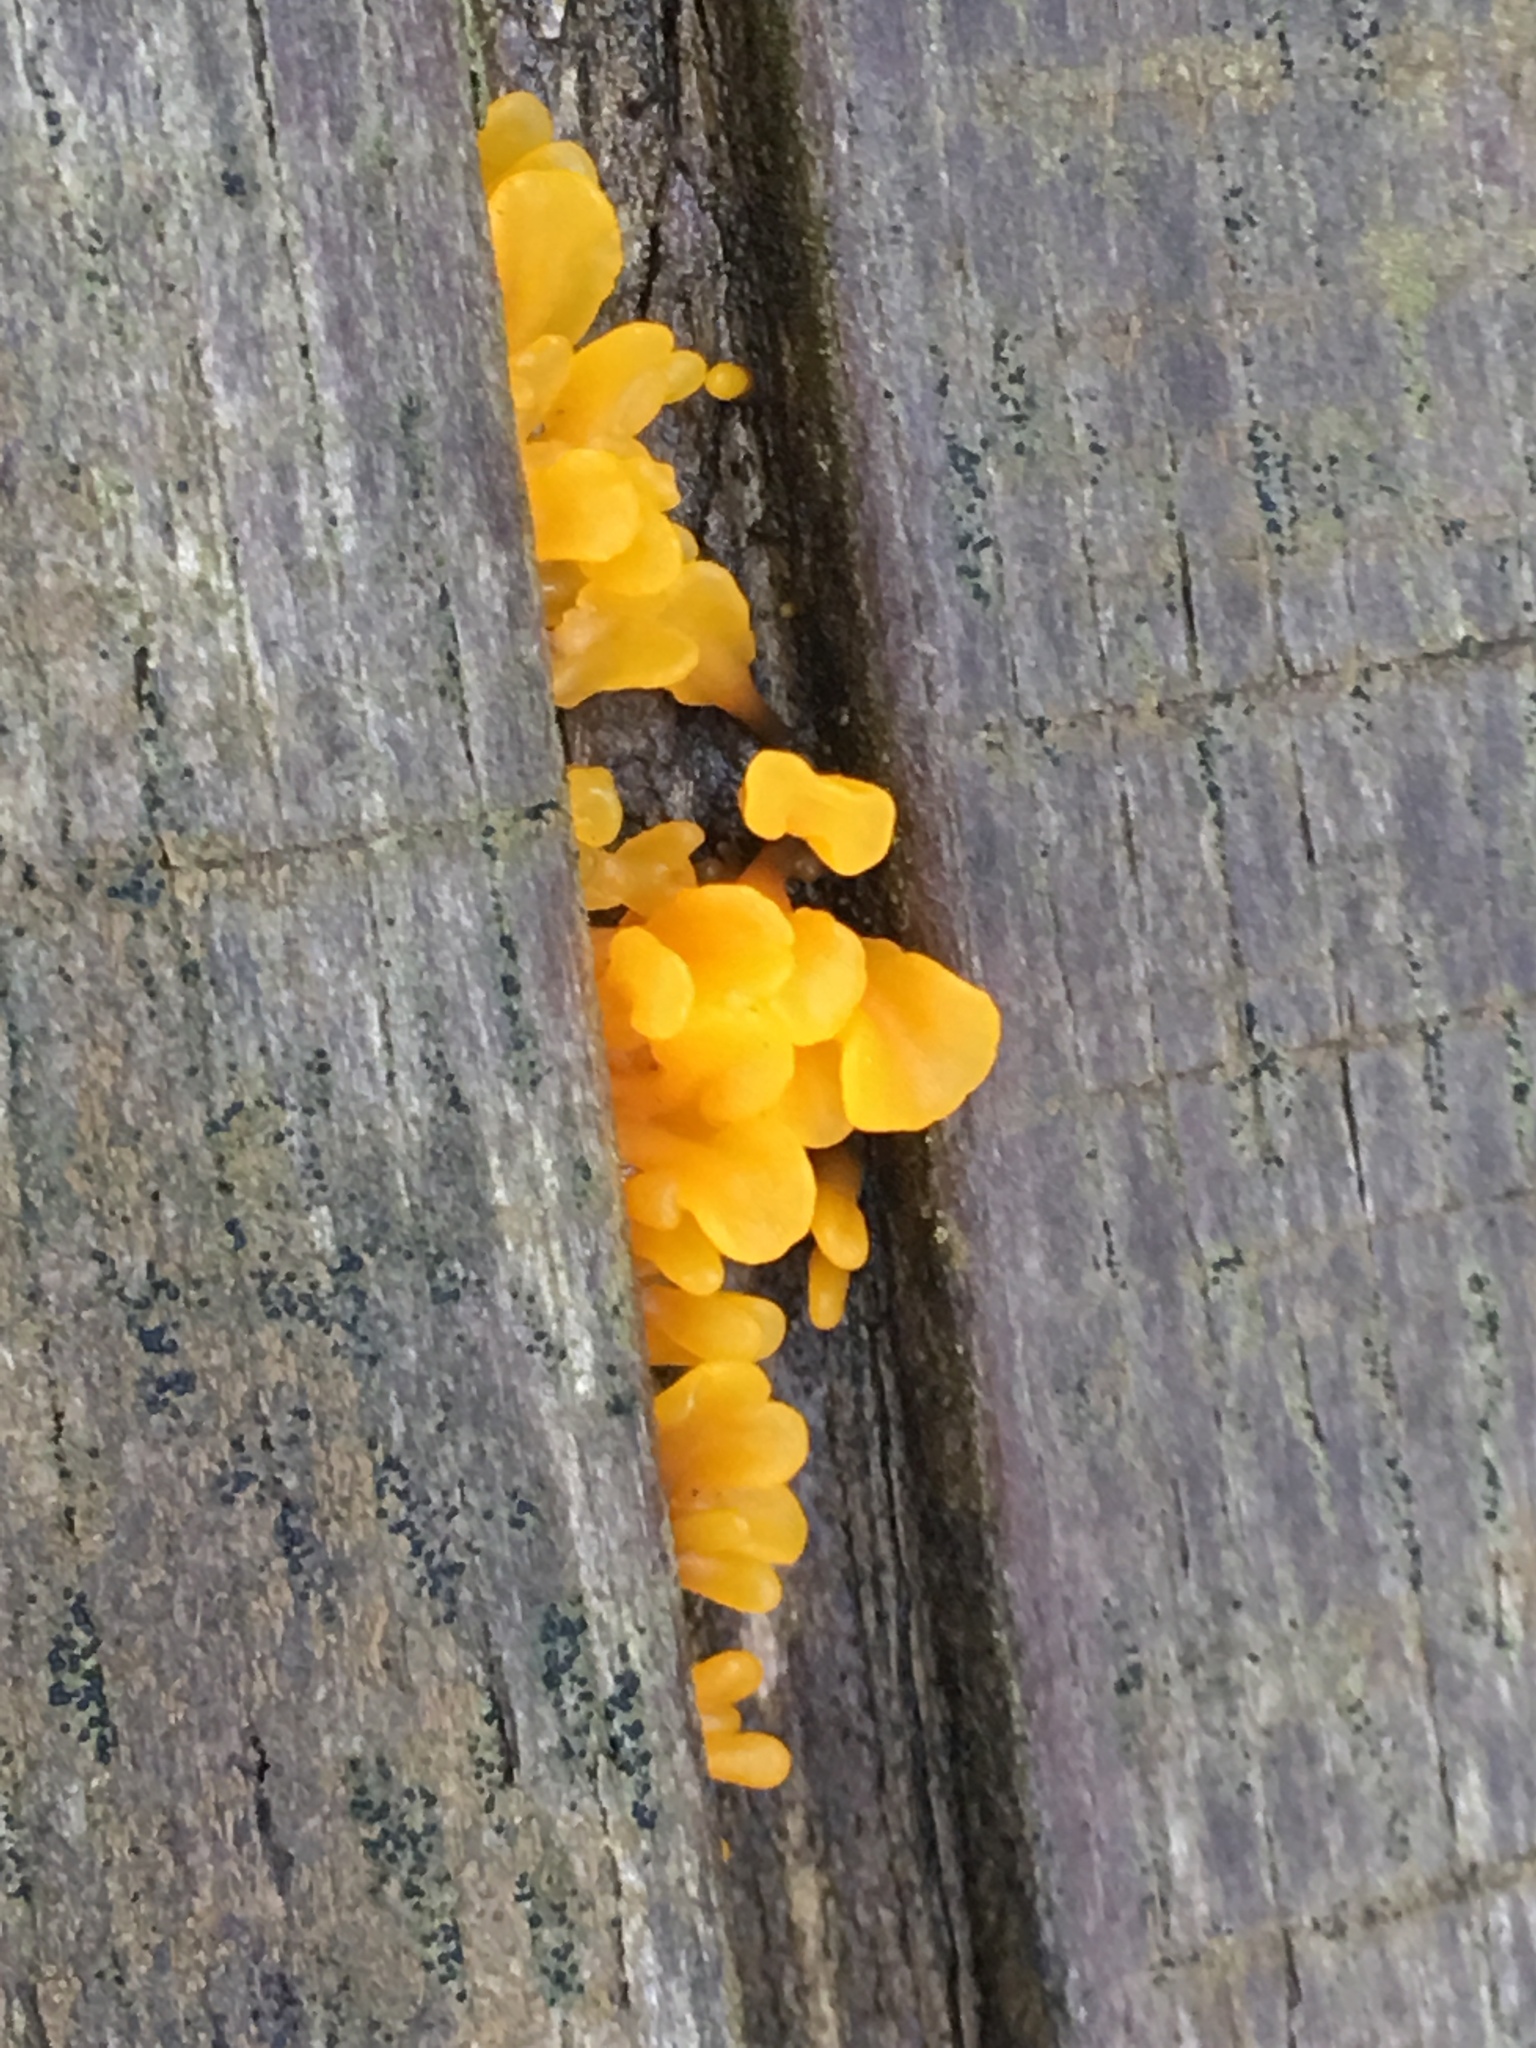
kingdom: Fungi
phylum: Basidiomycota
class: Dacrymycetes
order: Dacrymycetales
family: Dacrymycetaceae
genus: Dacrymyces
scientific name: Dacrymyces spathularius
